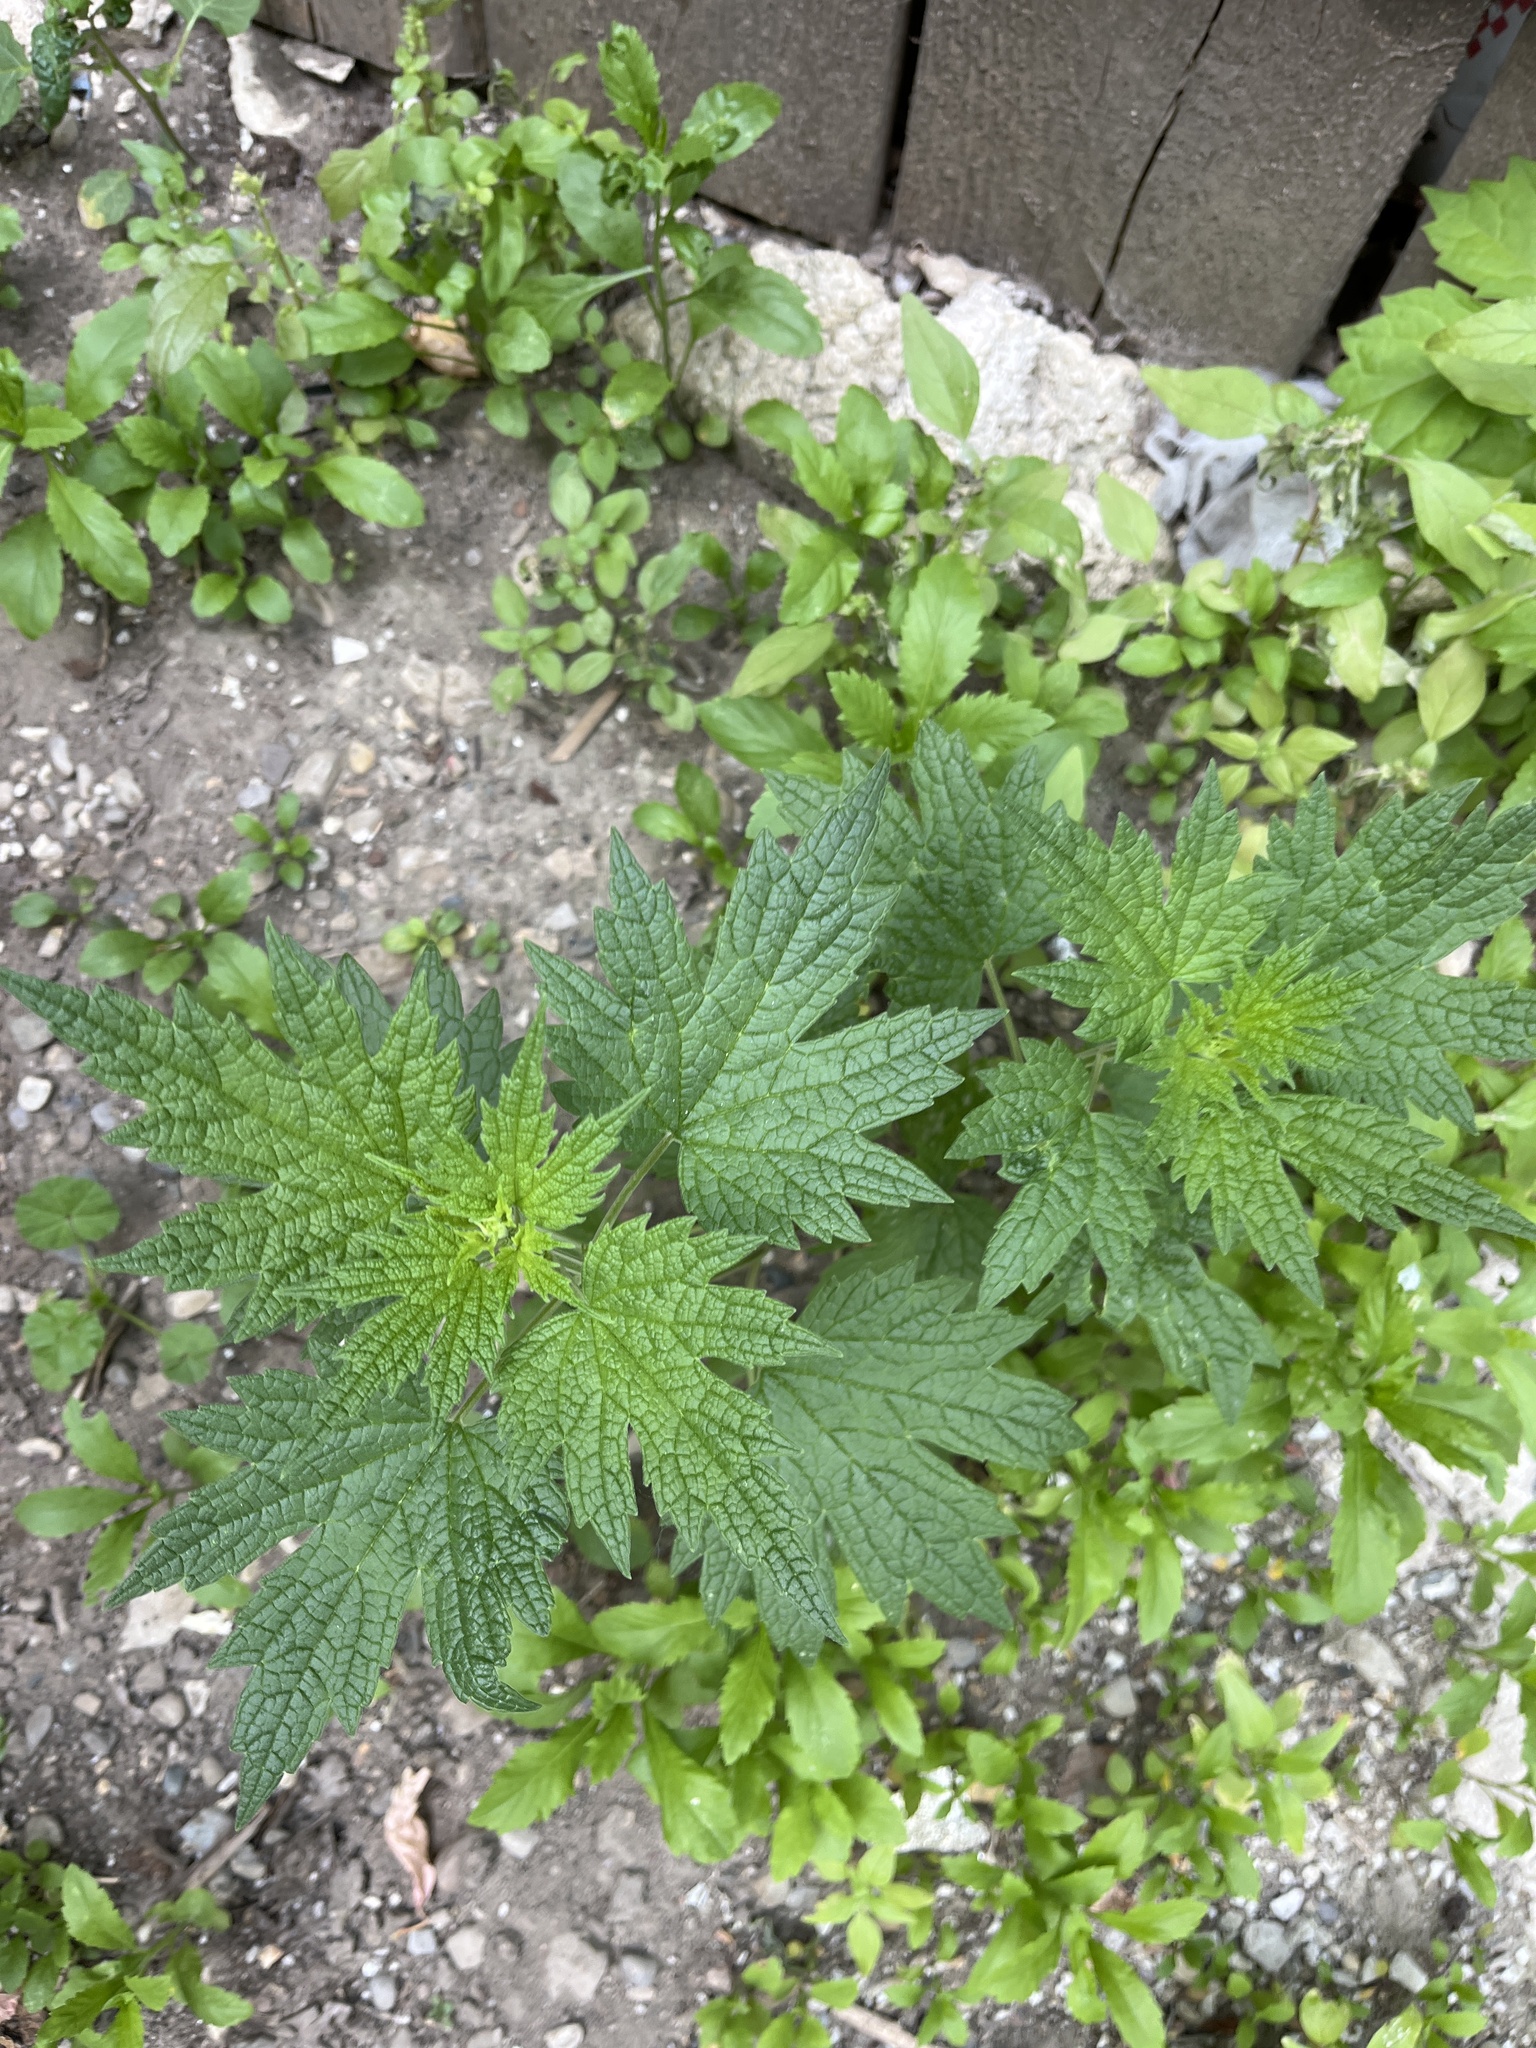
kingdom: Plantae
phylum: Tracheophyta
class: Magnoliopsida
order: Lamiales
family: Lamiaceae
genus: Leonurus
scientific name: Leonurus cardiaca
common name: Motherwort
